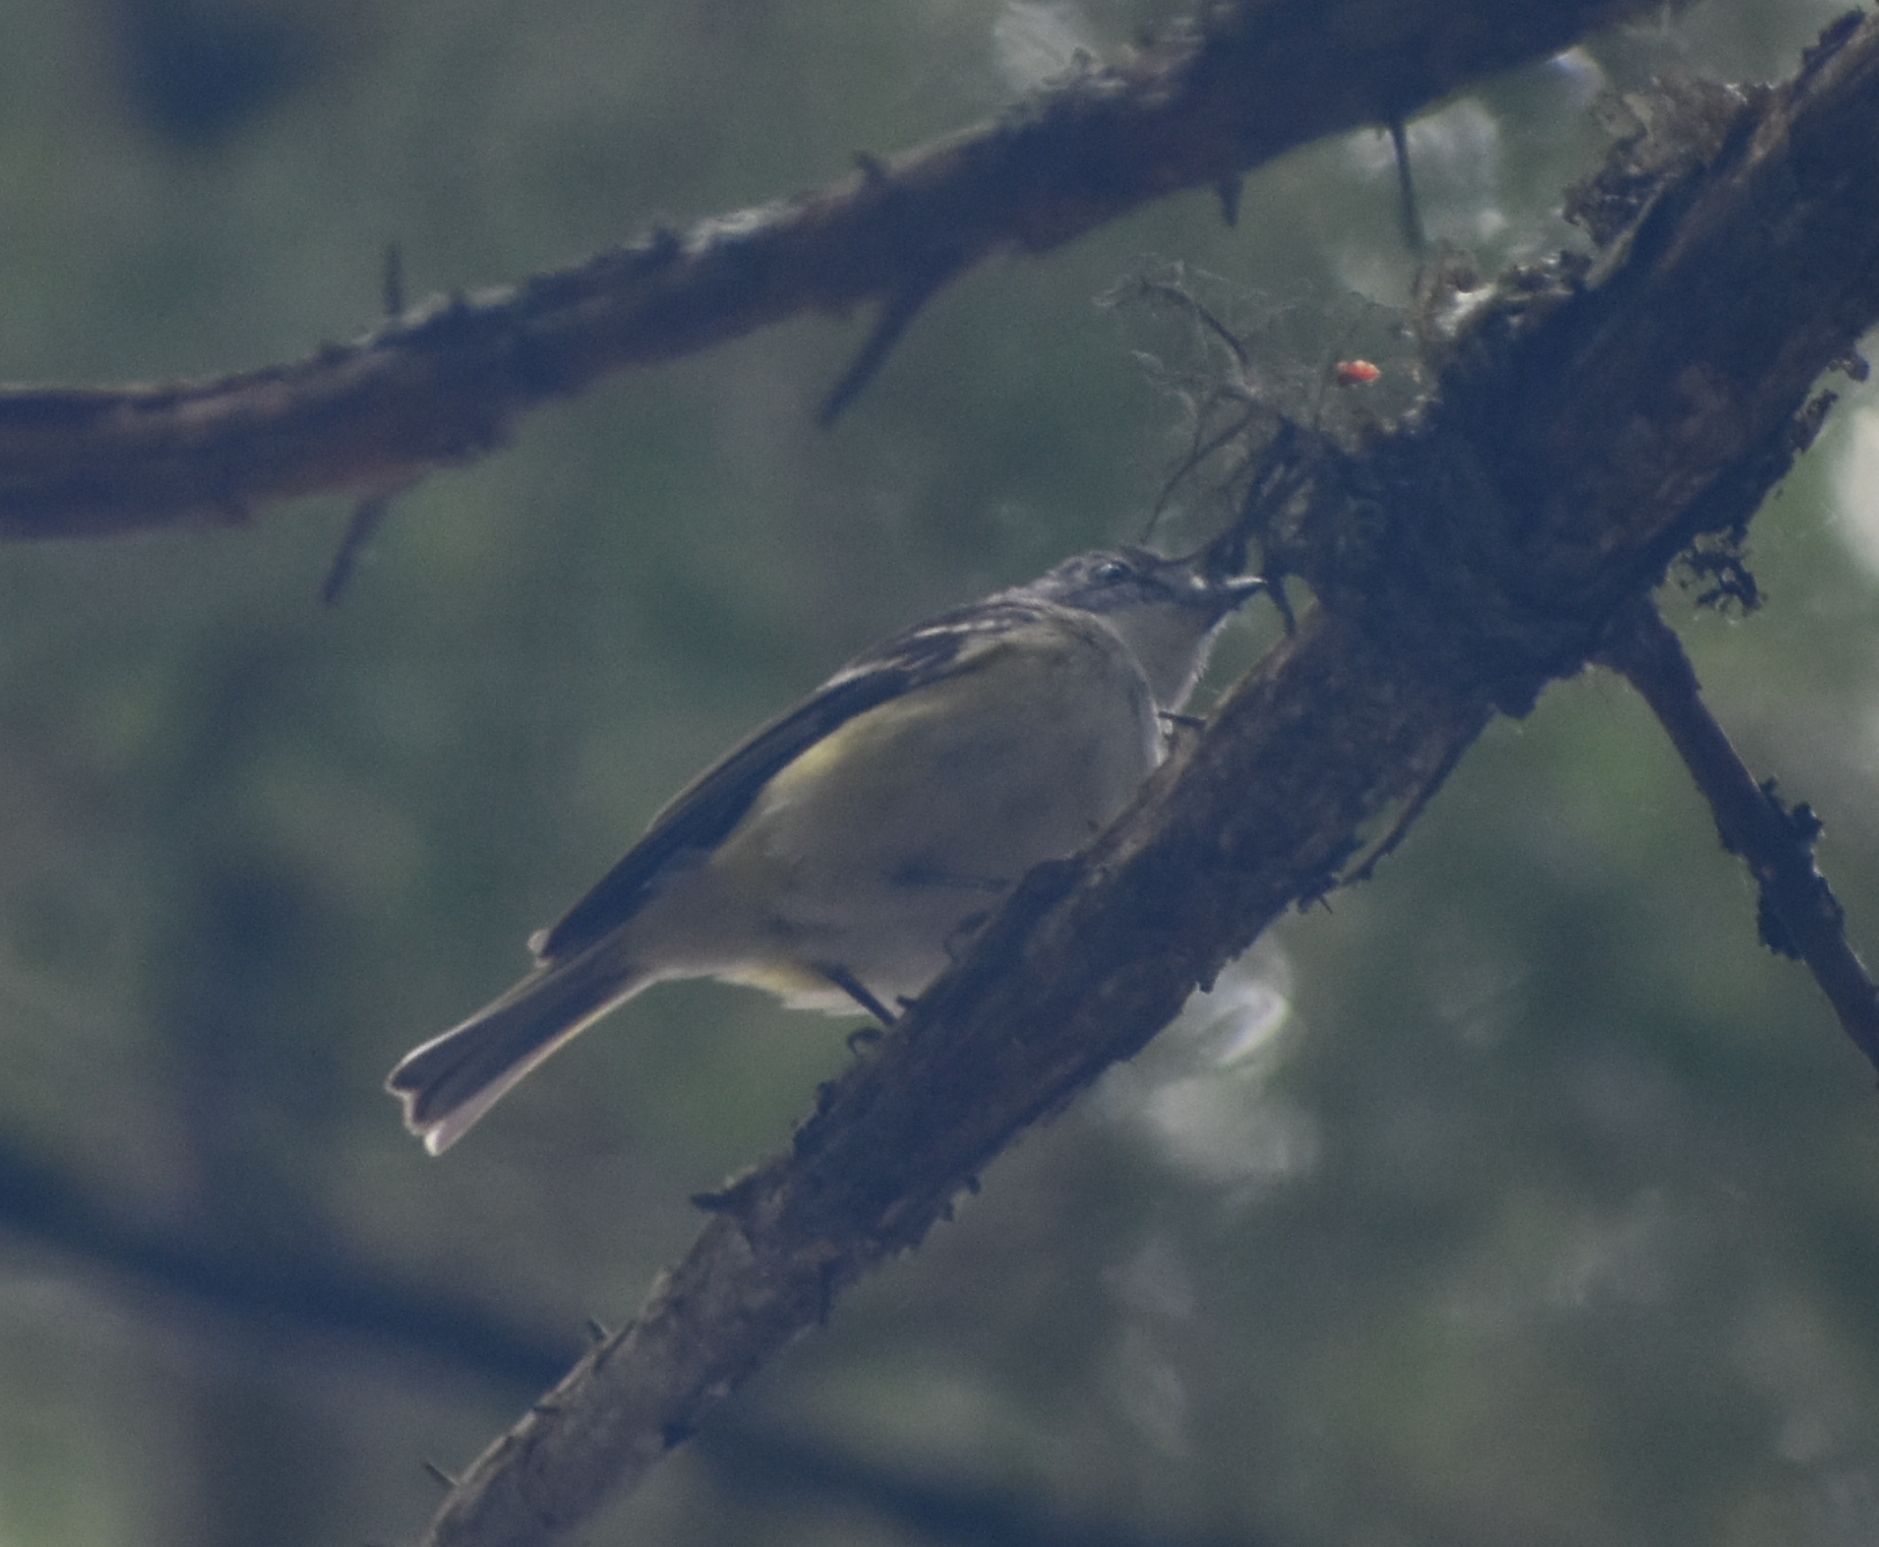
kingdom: Animalia
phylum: Chordata
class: Aves
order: Passeriformes
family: Vireonidae
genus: Vireo
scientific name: Vireo solitarius
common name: Blue-headed vireo
